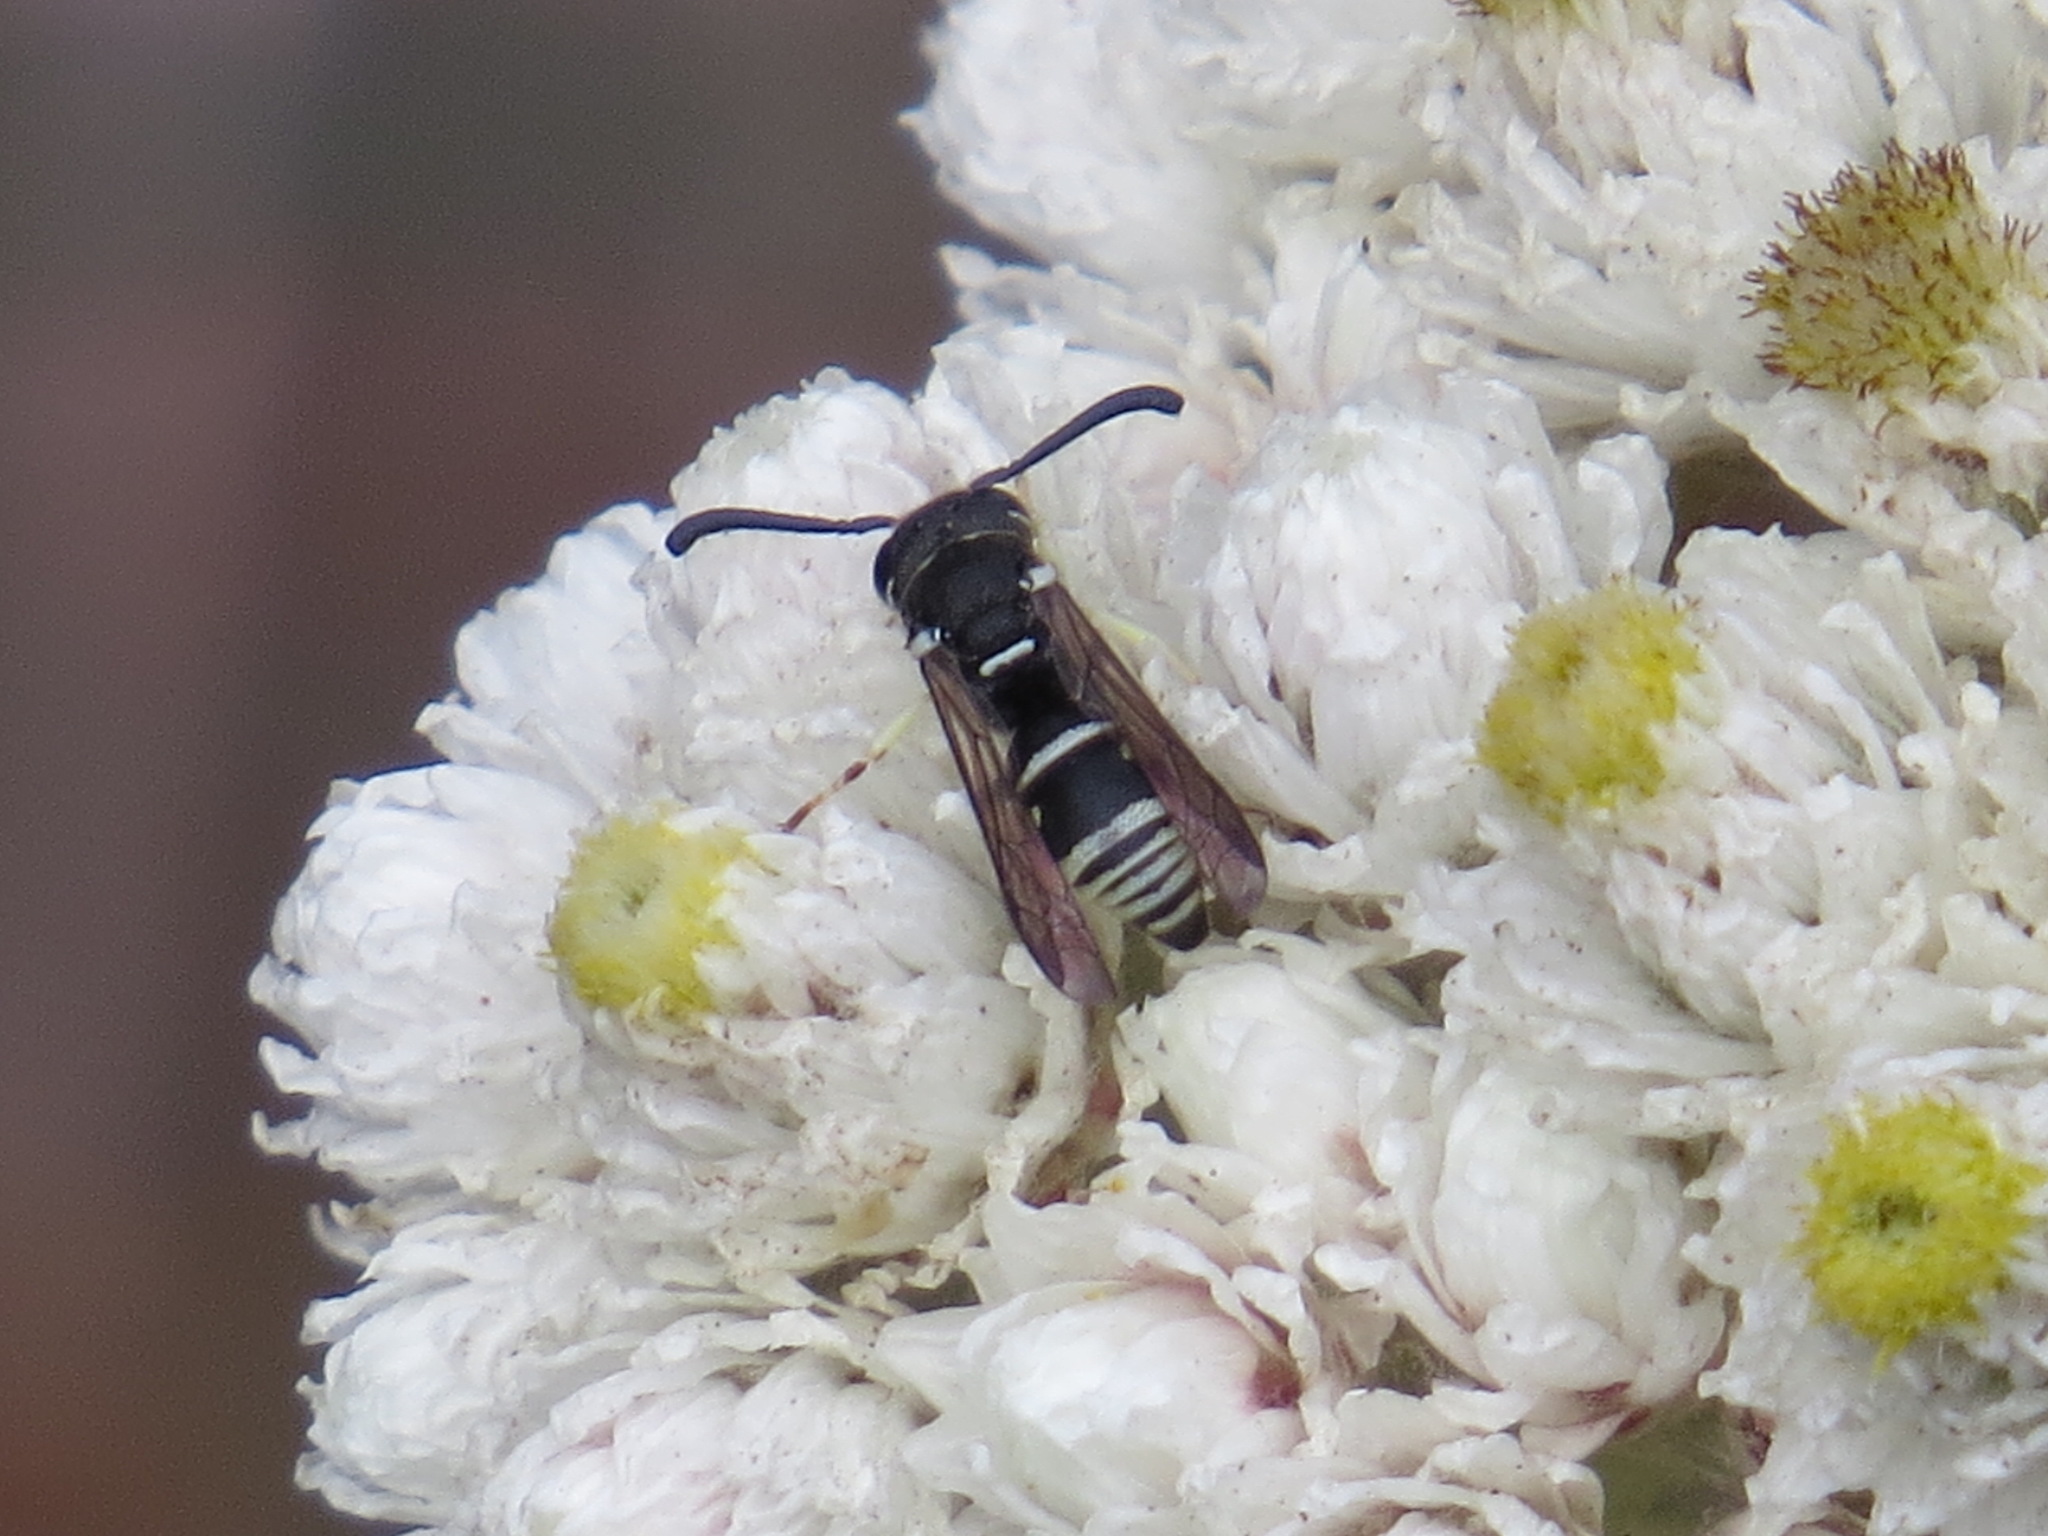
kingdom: Animalia
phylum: Arthropoda
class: Insecta
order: Hymenoptera
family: Eumenidae
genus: Rhynchalastor
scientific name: Rhynchalastor blandus
